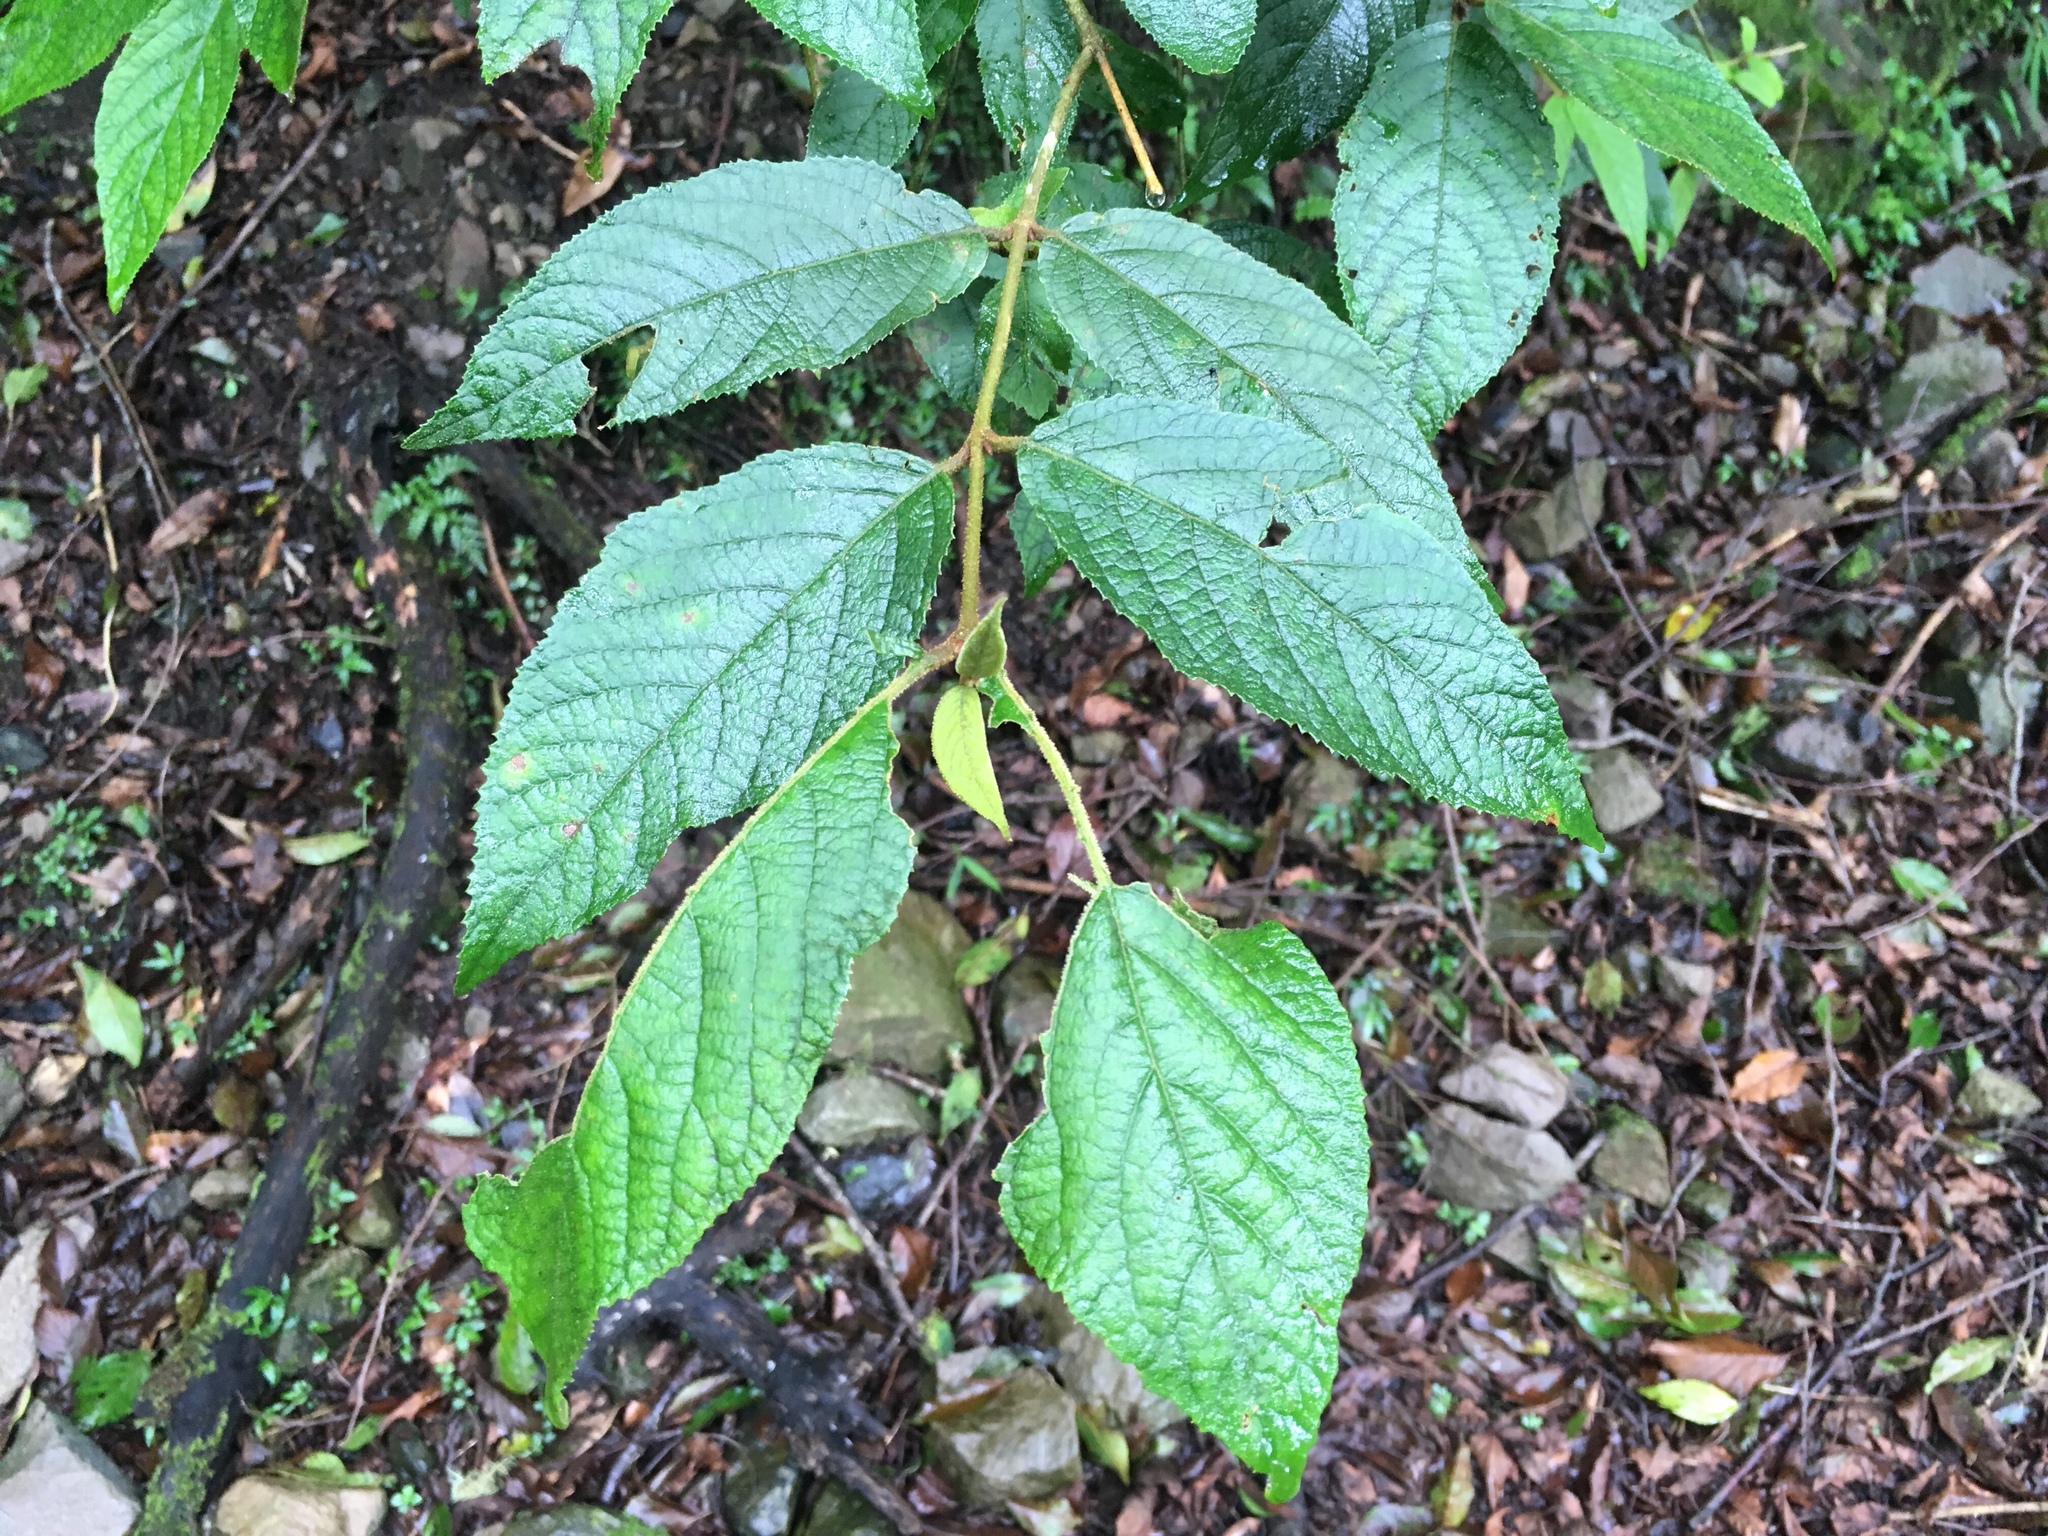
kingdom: Plantae
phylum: Tracheophyta
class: Magnoliopsida
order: Lamiales
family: Lamiaceae
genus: Callicarpa
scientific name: Callicarpa pedunculata
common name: Velvetleaf
